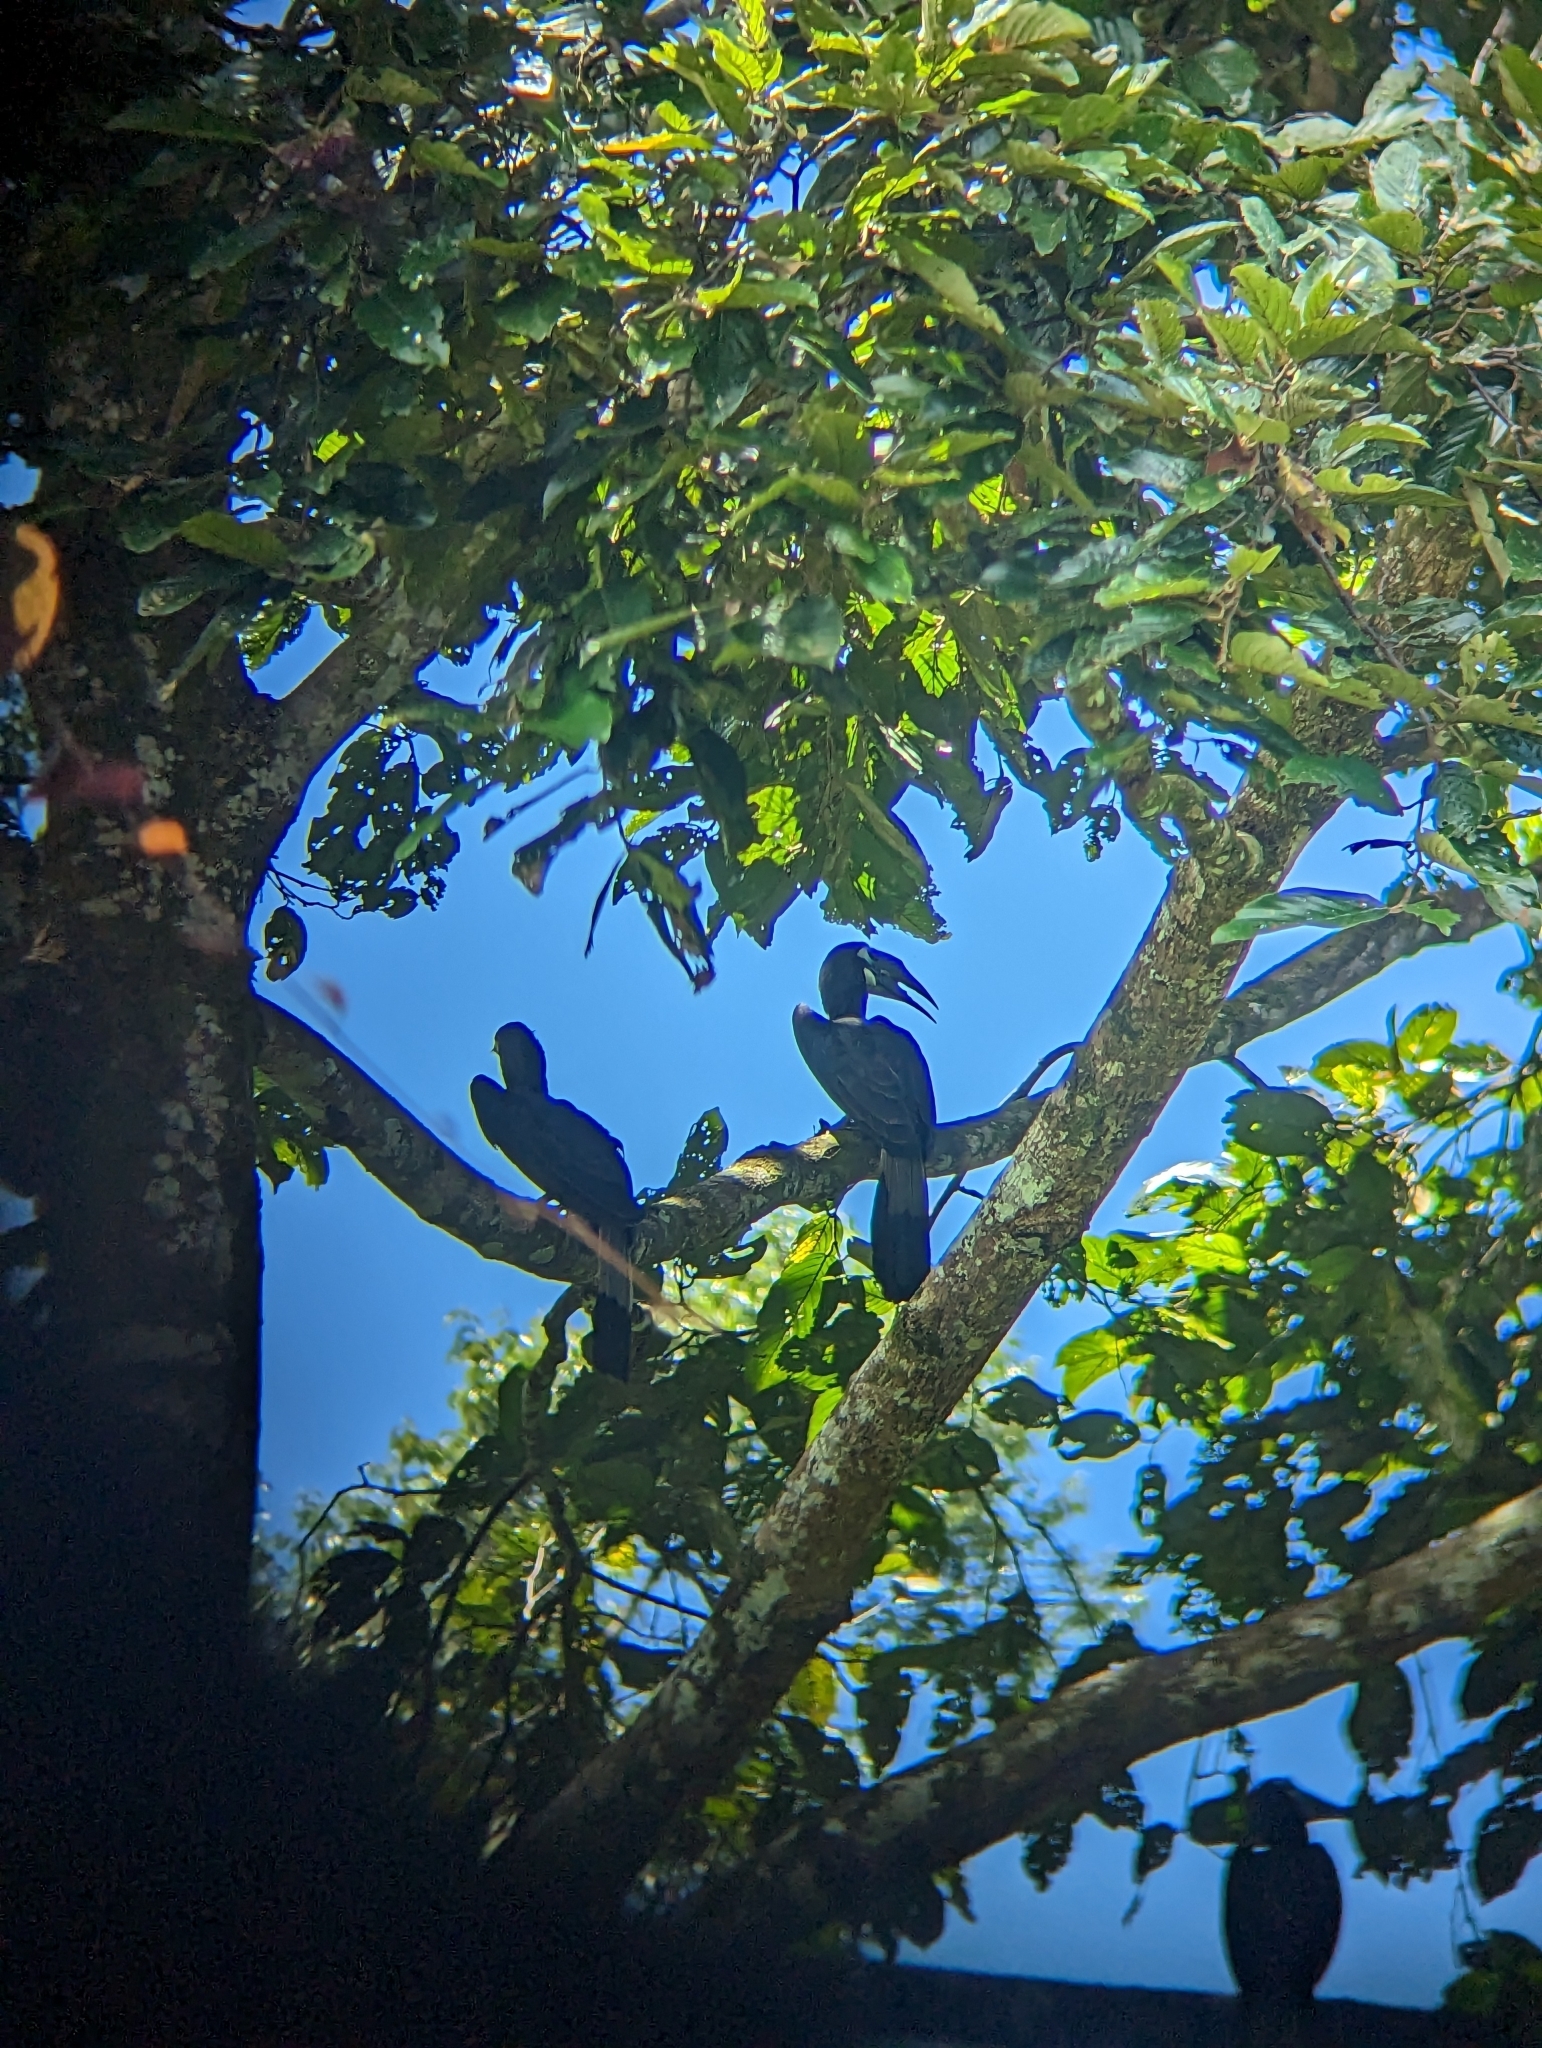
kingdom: Animalia
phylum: Chordata
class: Aves
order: Bucerotiformes
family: Bucerotidae
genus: Anorrhinus
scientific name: Anorrhinus galeritus
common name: Bushy-crested hornbill
